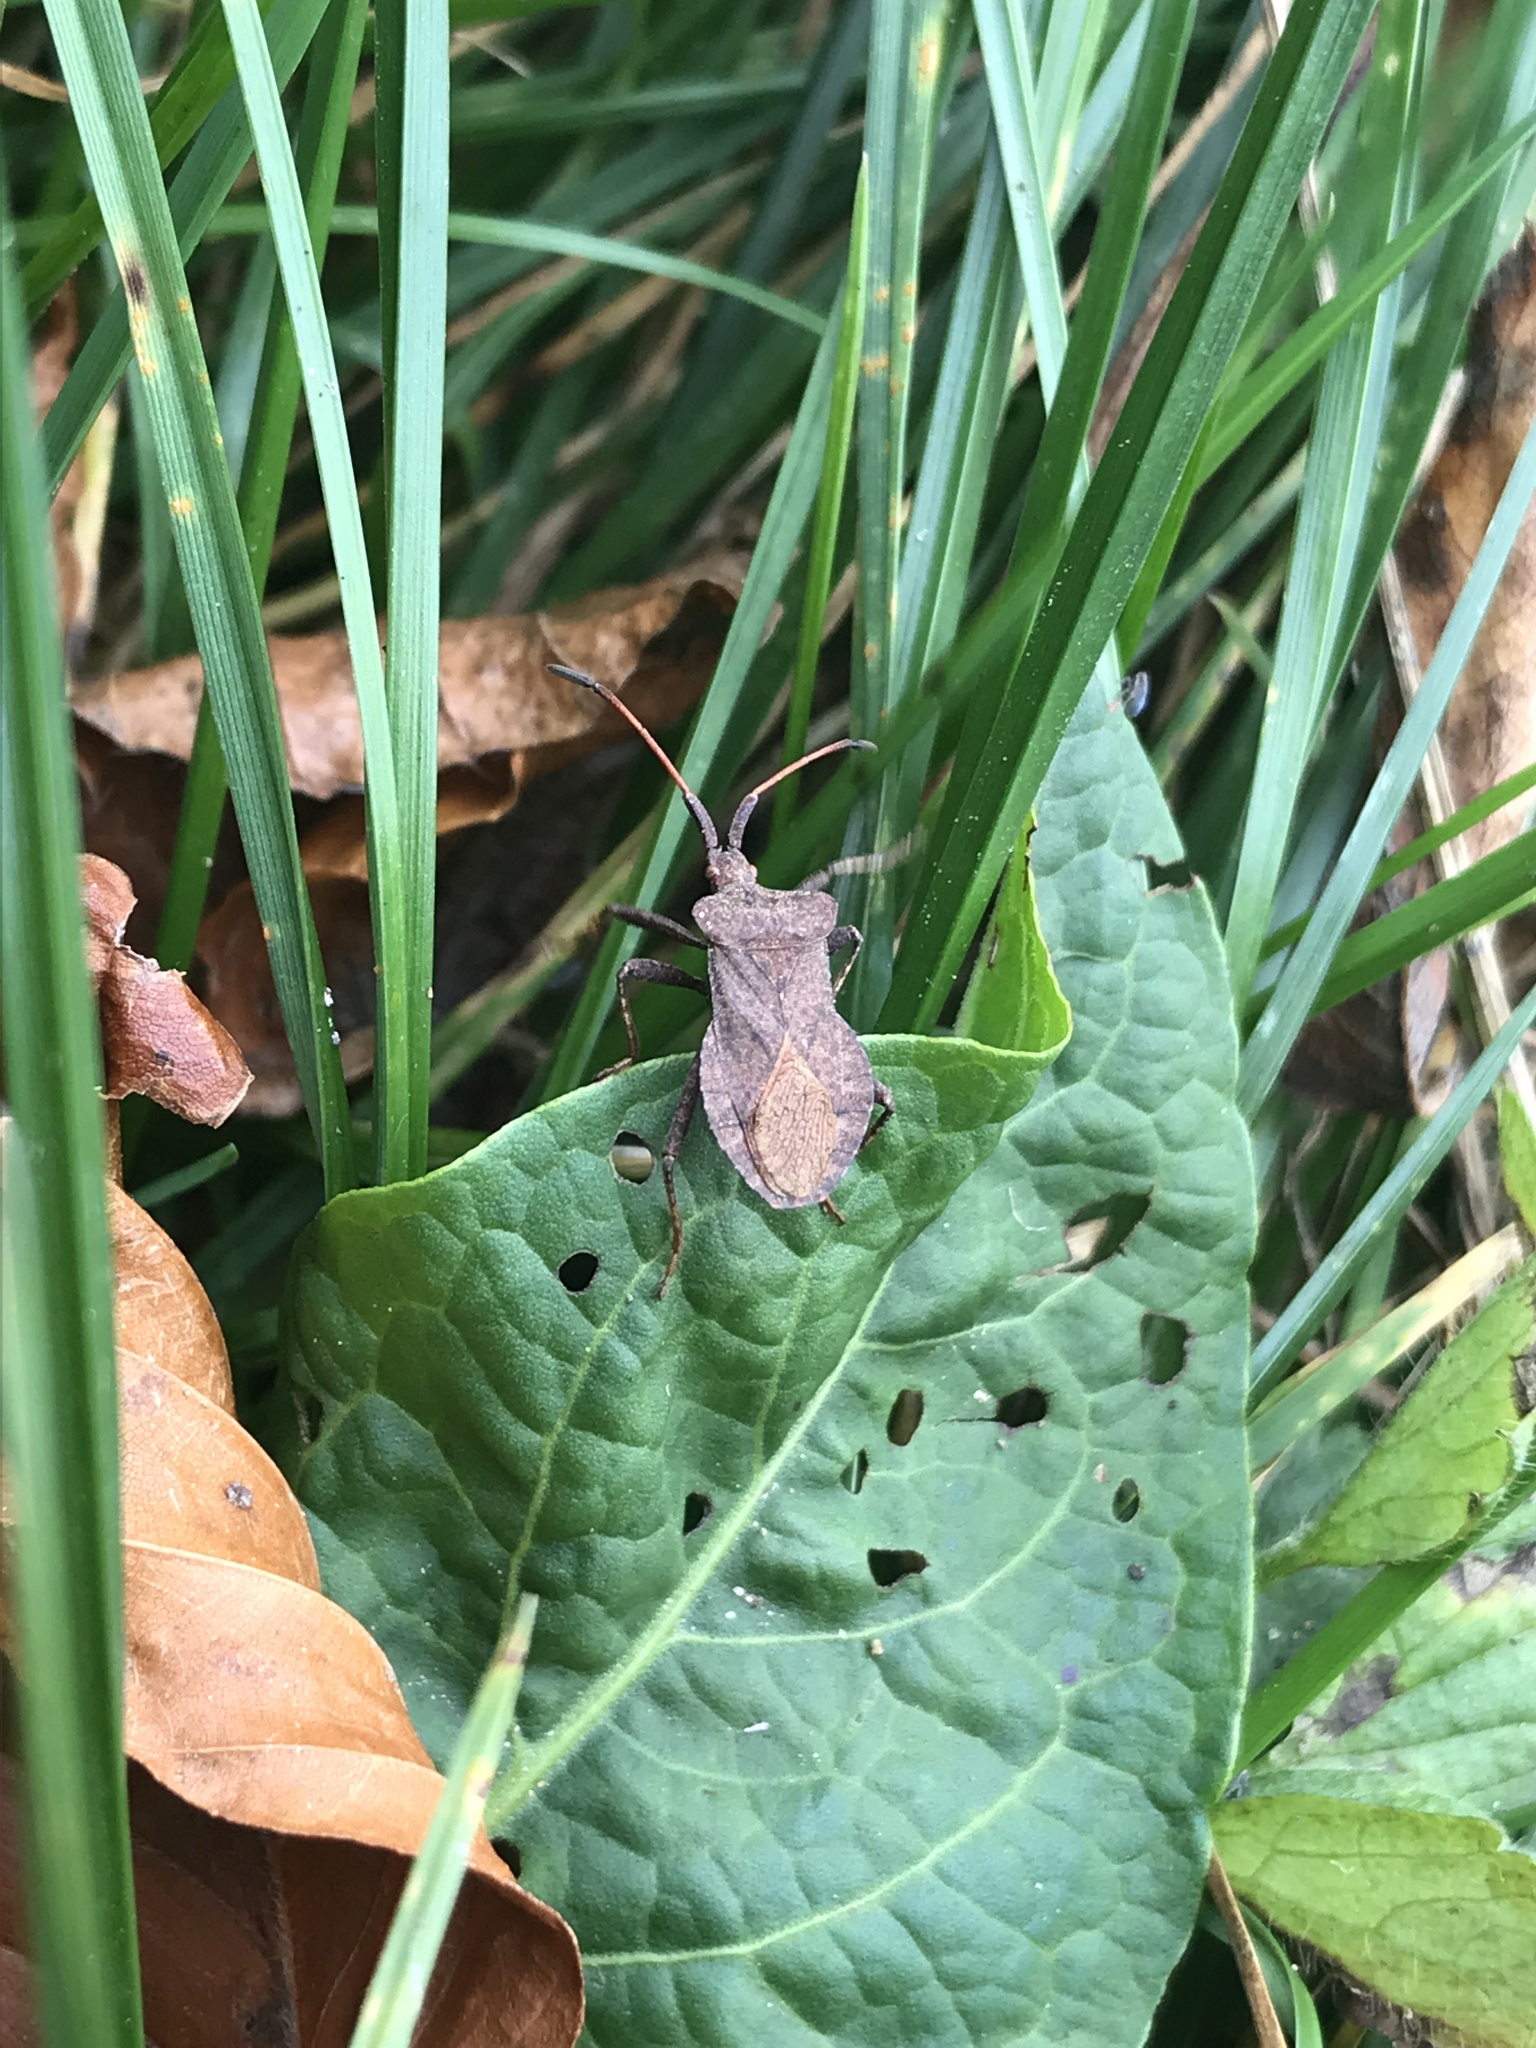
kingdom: Animalia
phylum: Arthropoda
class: Insecta
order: Hemiptera
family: Coreidae
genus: Coreus
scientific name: Coreus marginatus
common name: Dock bug
